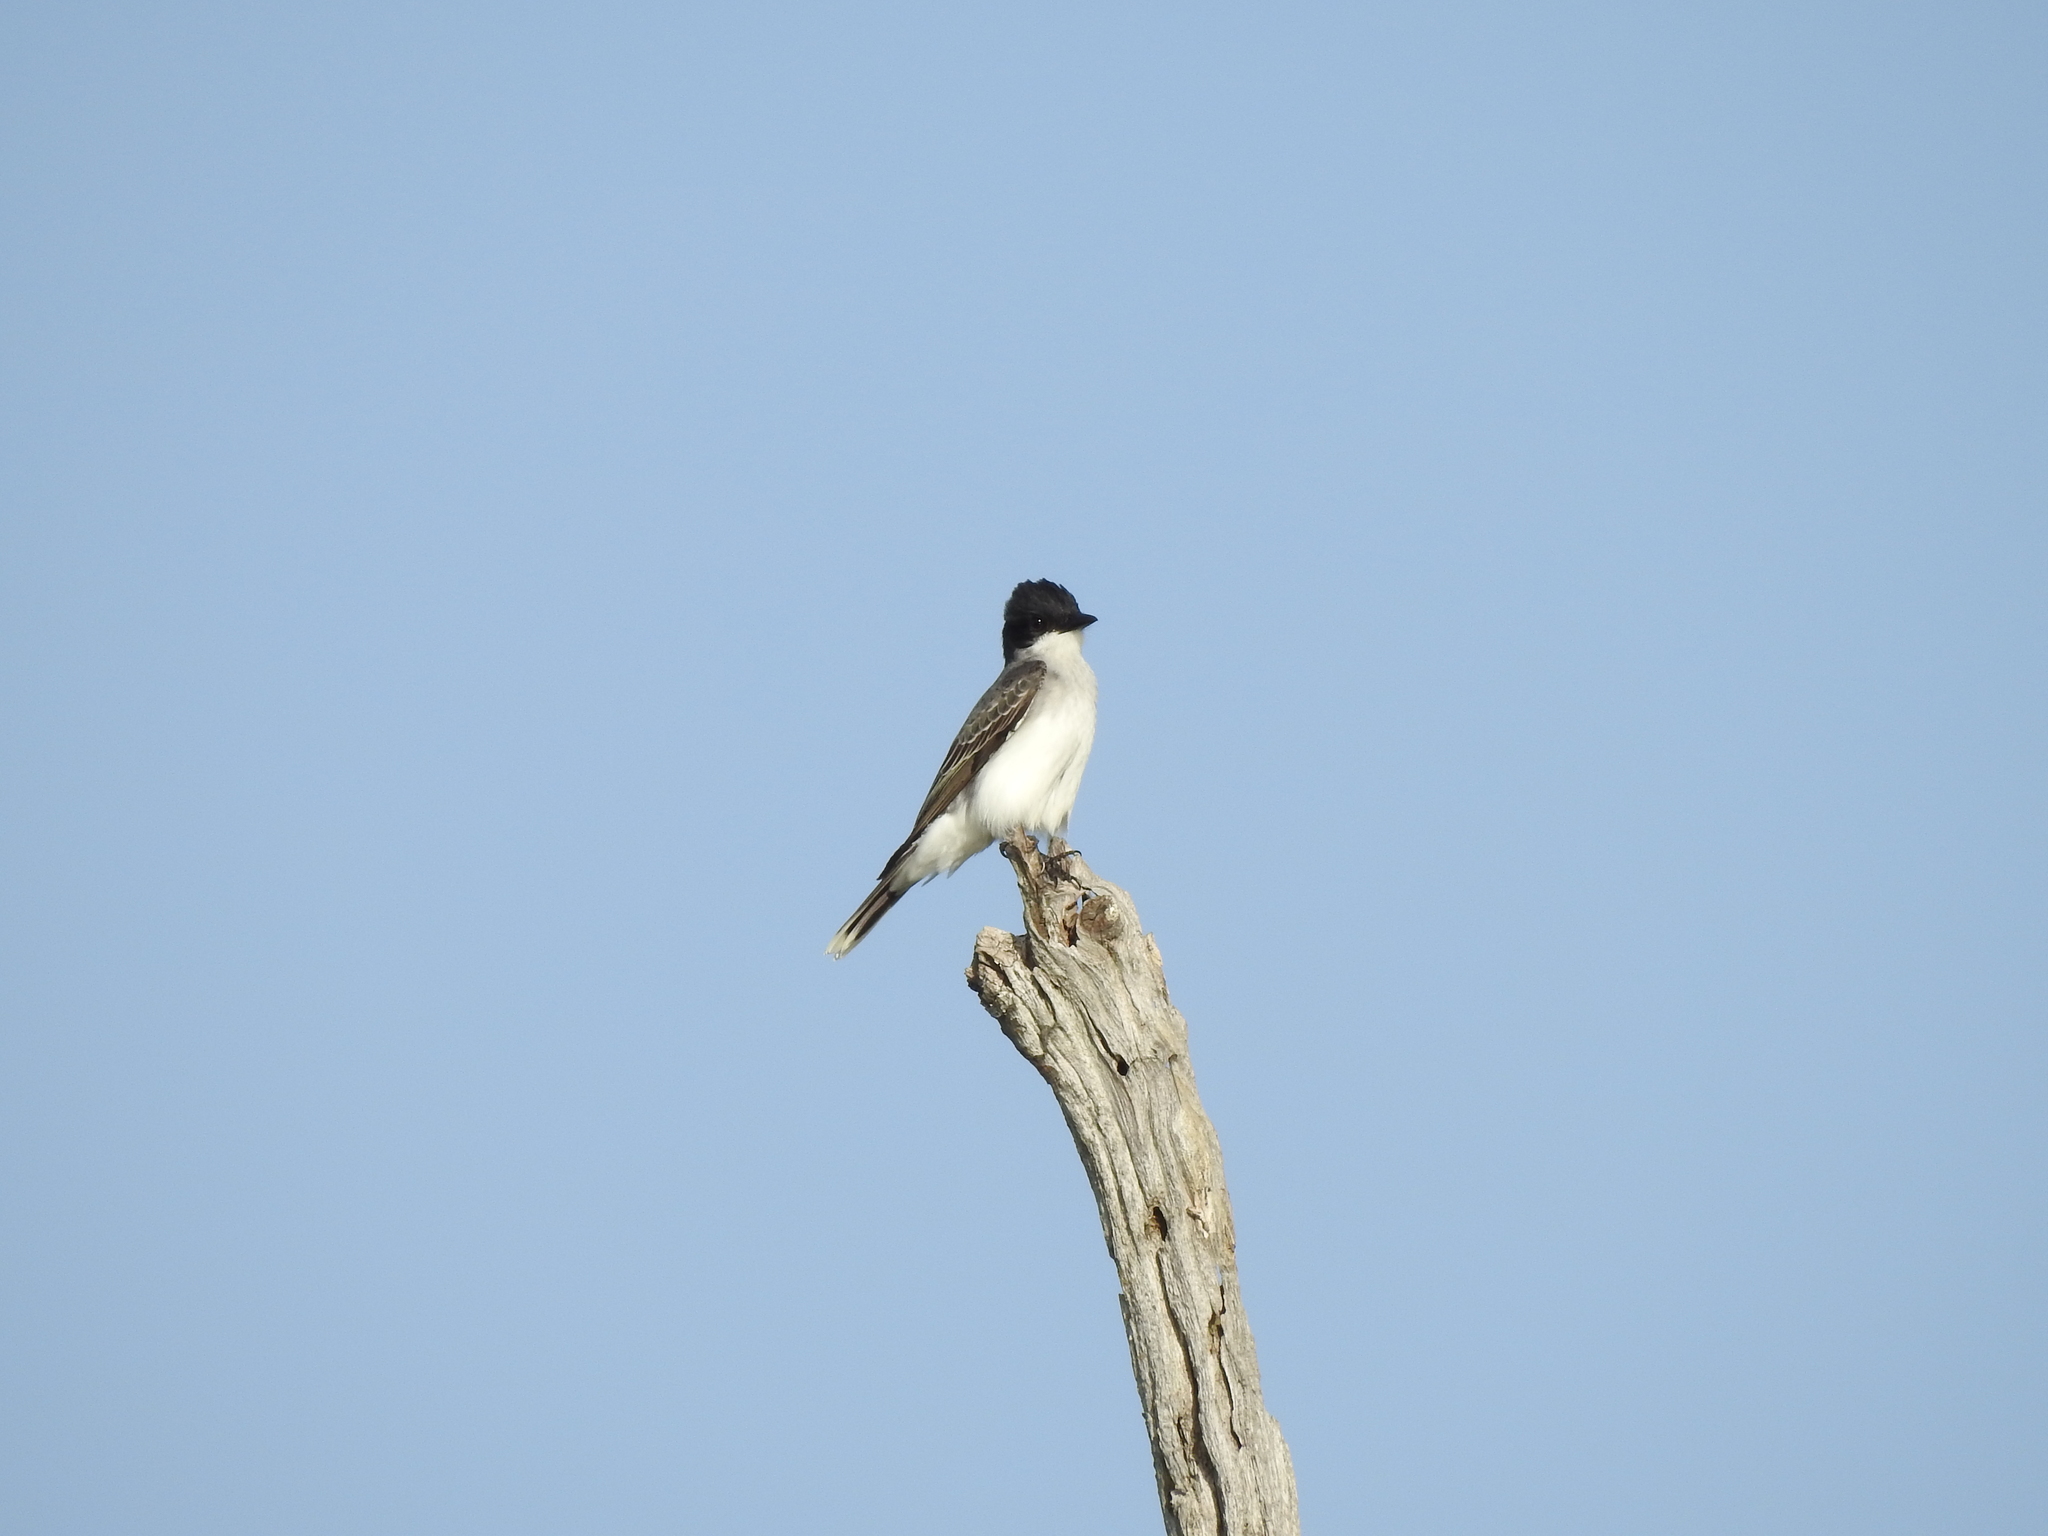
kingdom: Animalia
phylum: Chordata
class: Aves
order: Passeriformes
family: Tyrannidae
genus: Tyrannus
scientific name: Tyrannus tyrannus
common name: Eastern kingbird
